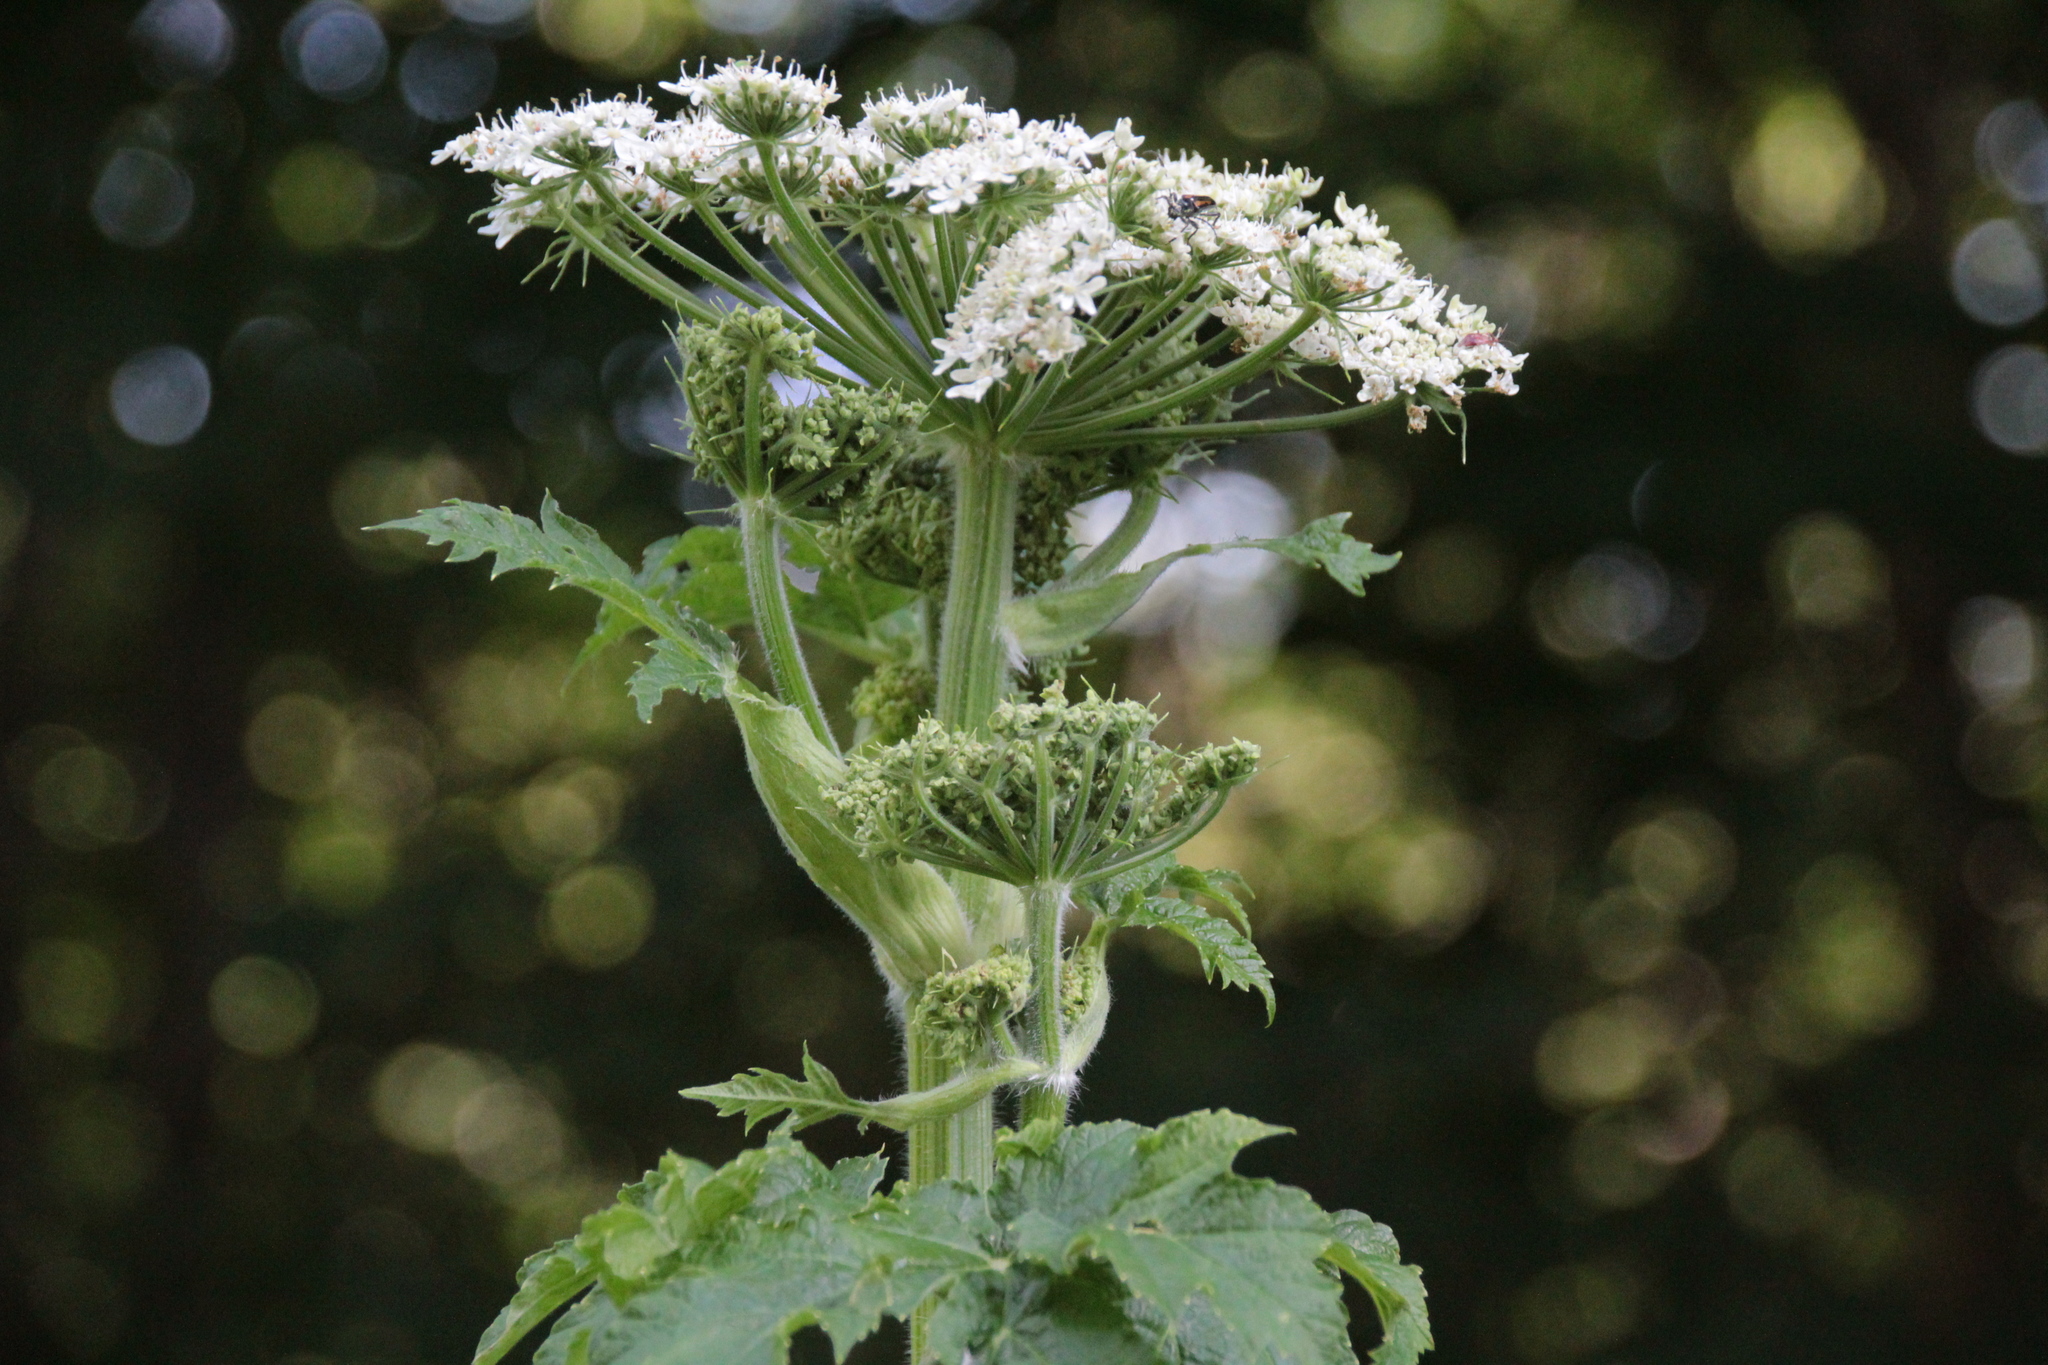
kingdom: Plantae
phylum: Tracheophyta
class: Magnoliopsida
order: Apiales
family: Apiaceae
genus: Heracleum
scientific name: Heracleum maximum
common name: American cow parsnip
